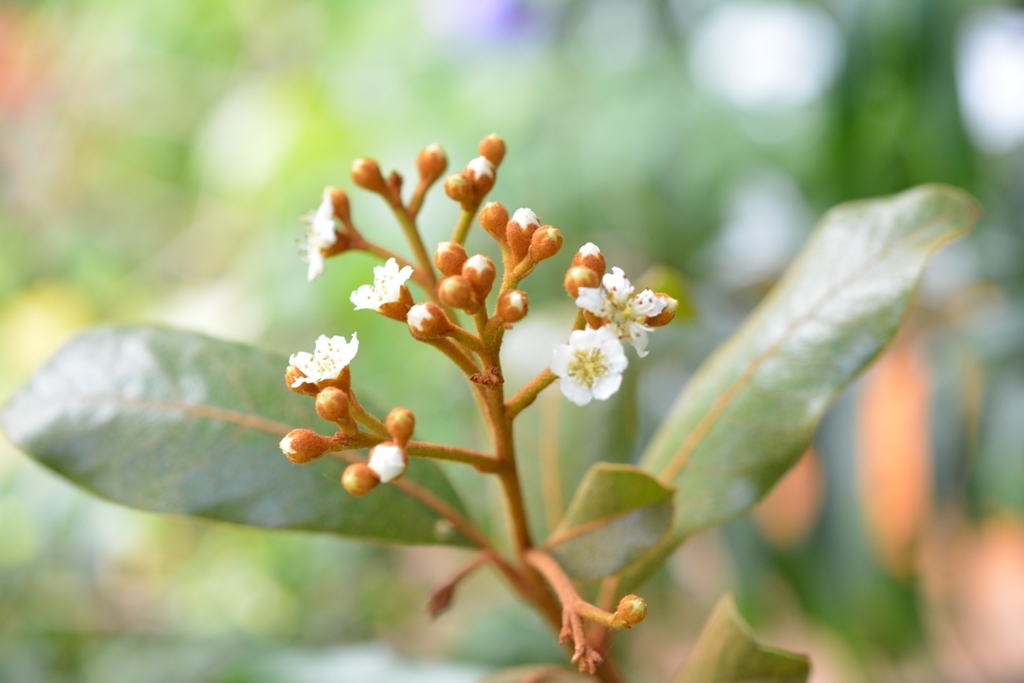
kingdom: Plantae
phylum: Tracheophyta
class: Magnoliopsida
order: Rosales
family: Rosaceae
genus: Phippsiomeles
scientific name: Phippsiomeles matudae
